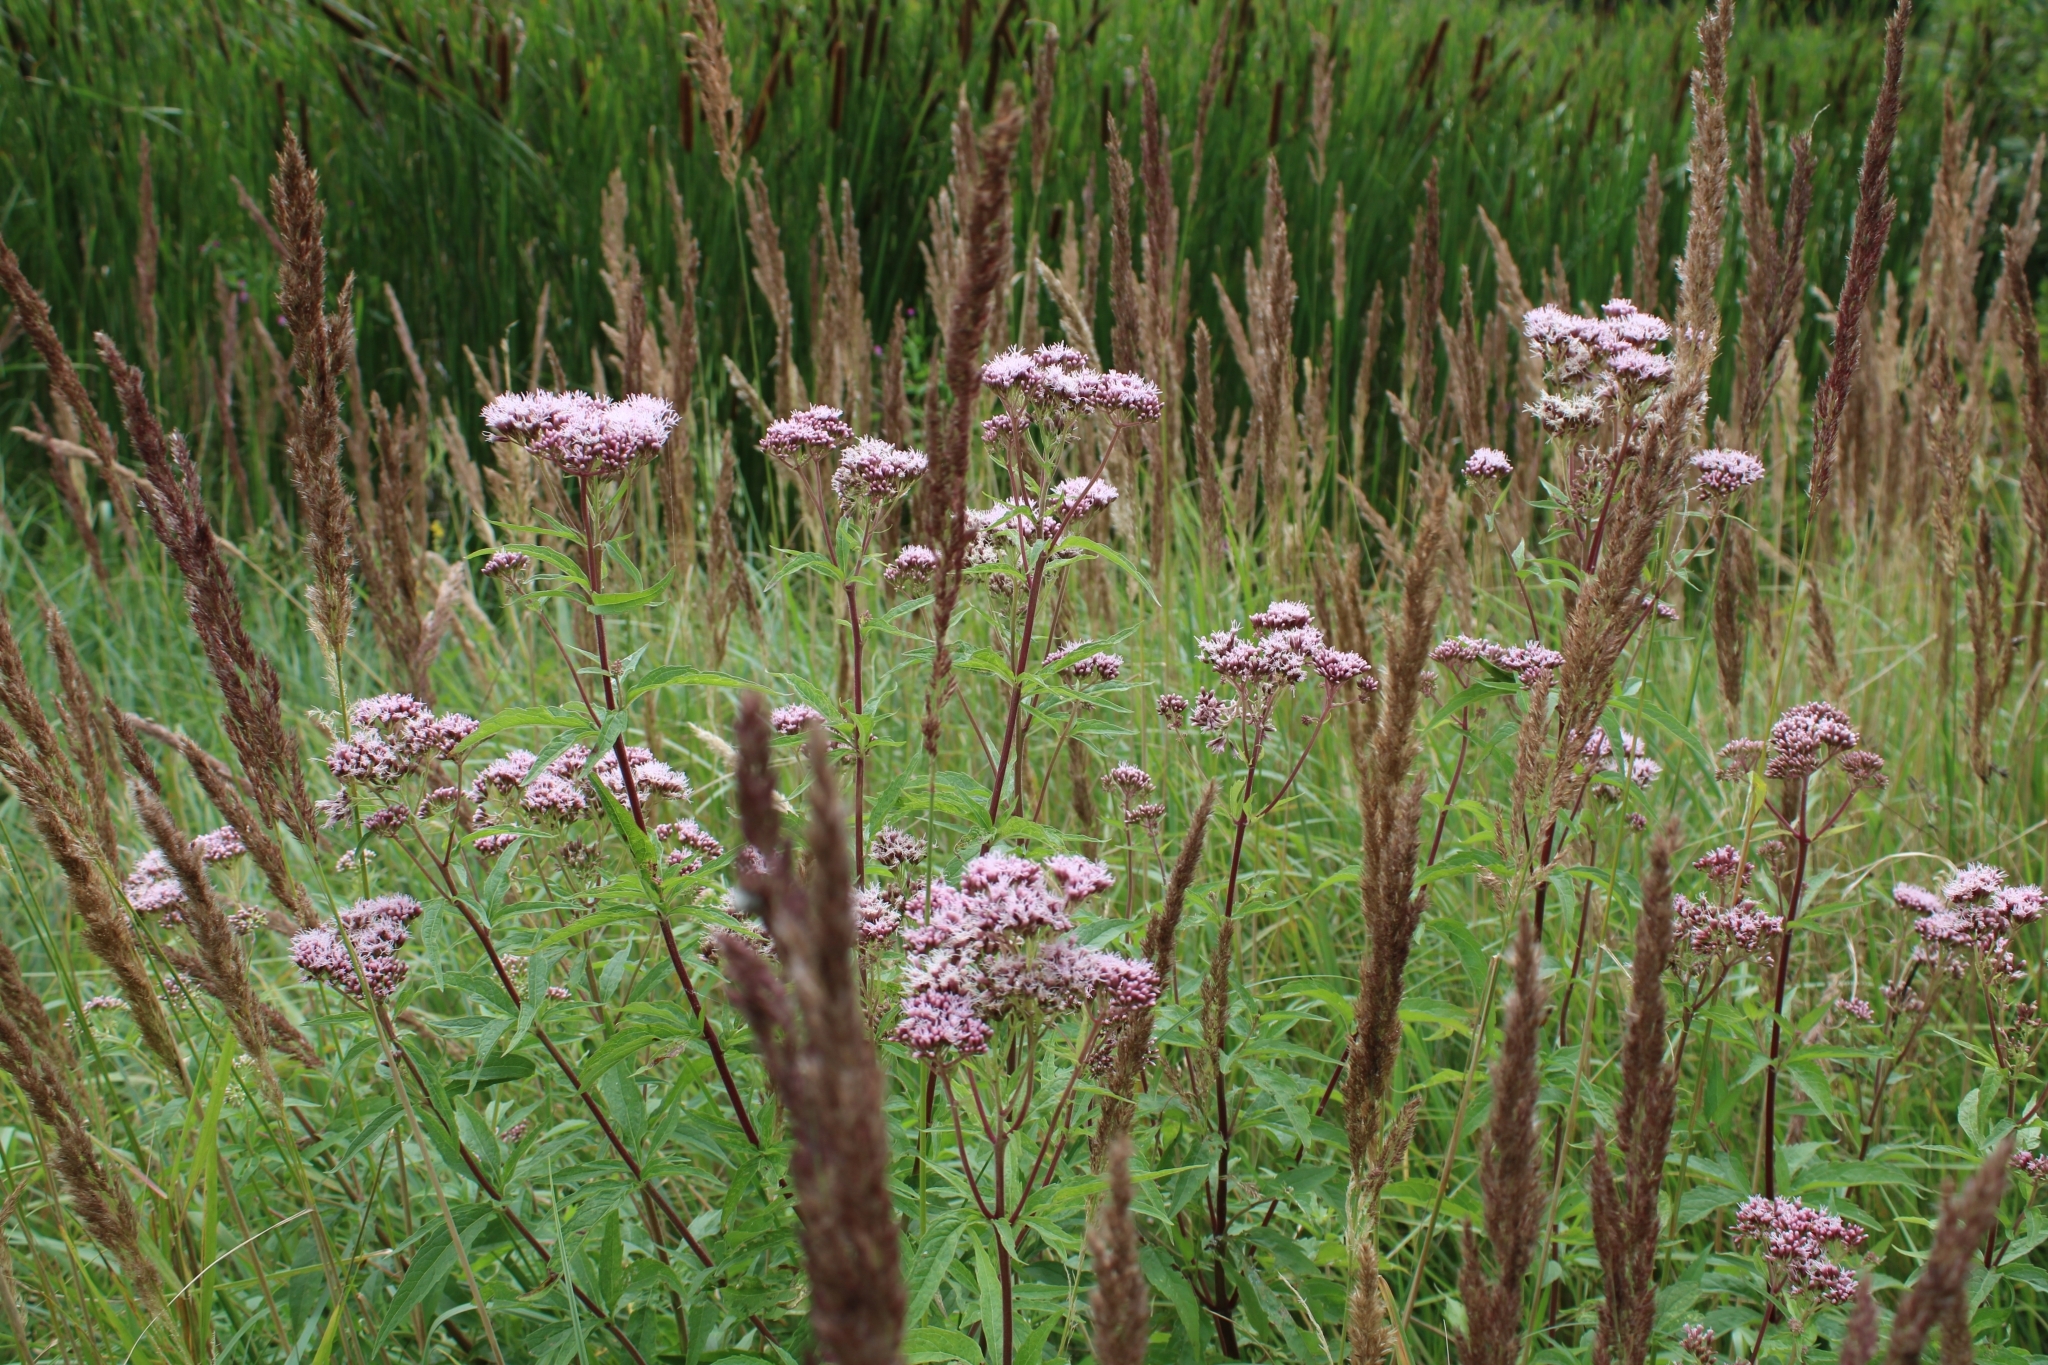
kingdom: Plantae
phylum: Tracheophyta
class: Magnoliopsida
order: Asterales
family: Asteraceae
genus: Eupatorium
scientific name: Eupatorium cannabinum
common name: Hemp-agrimony
